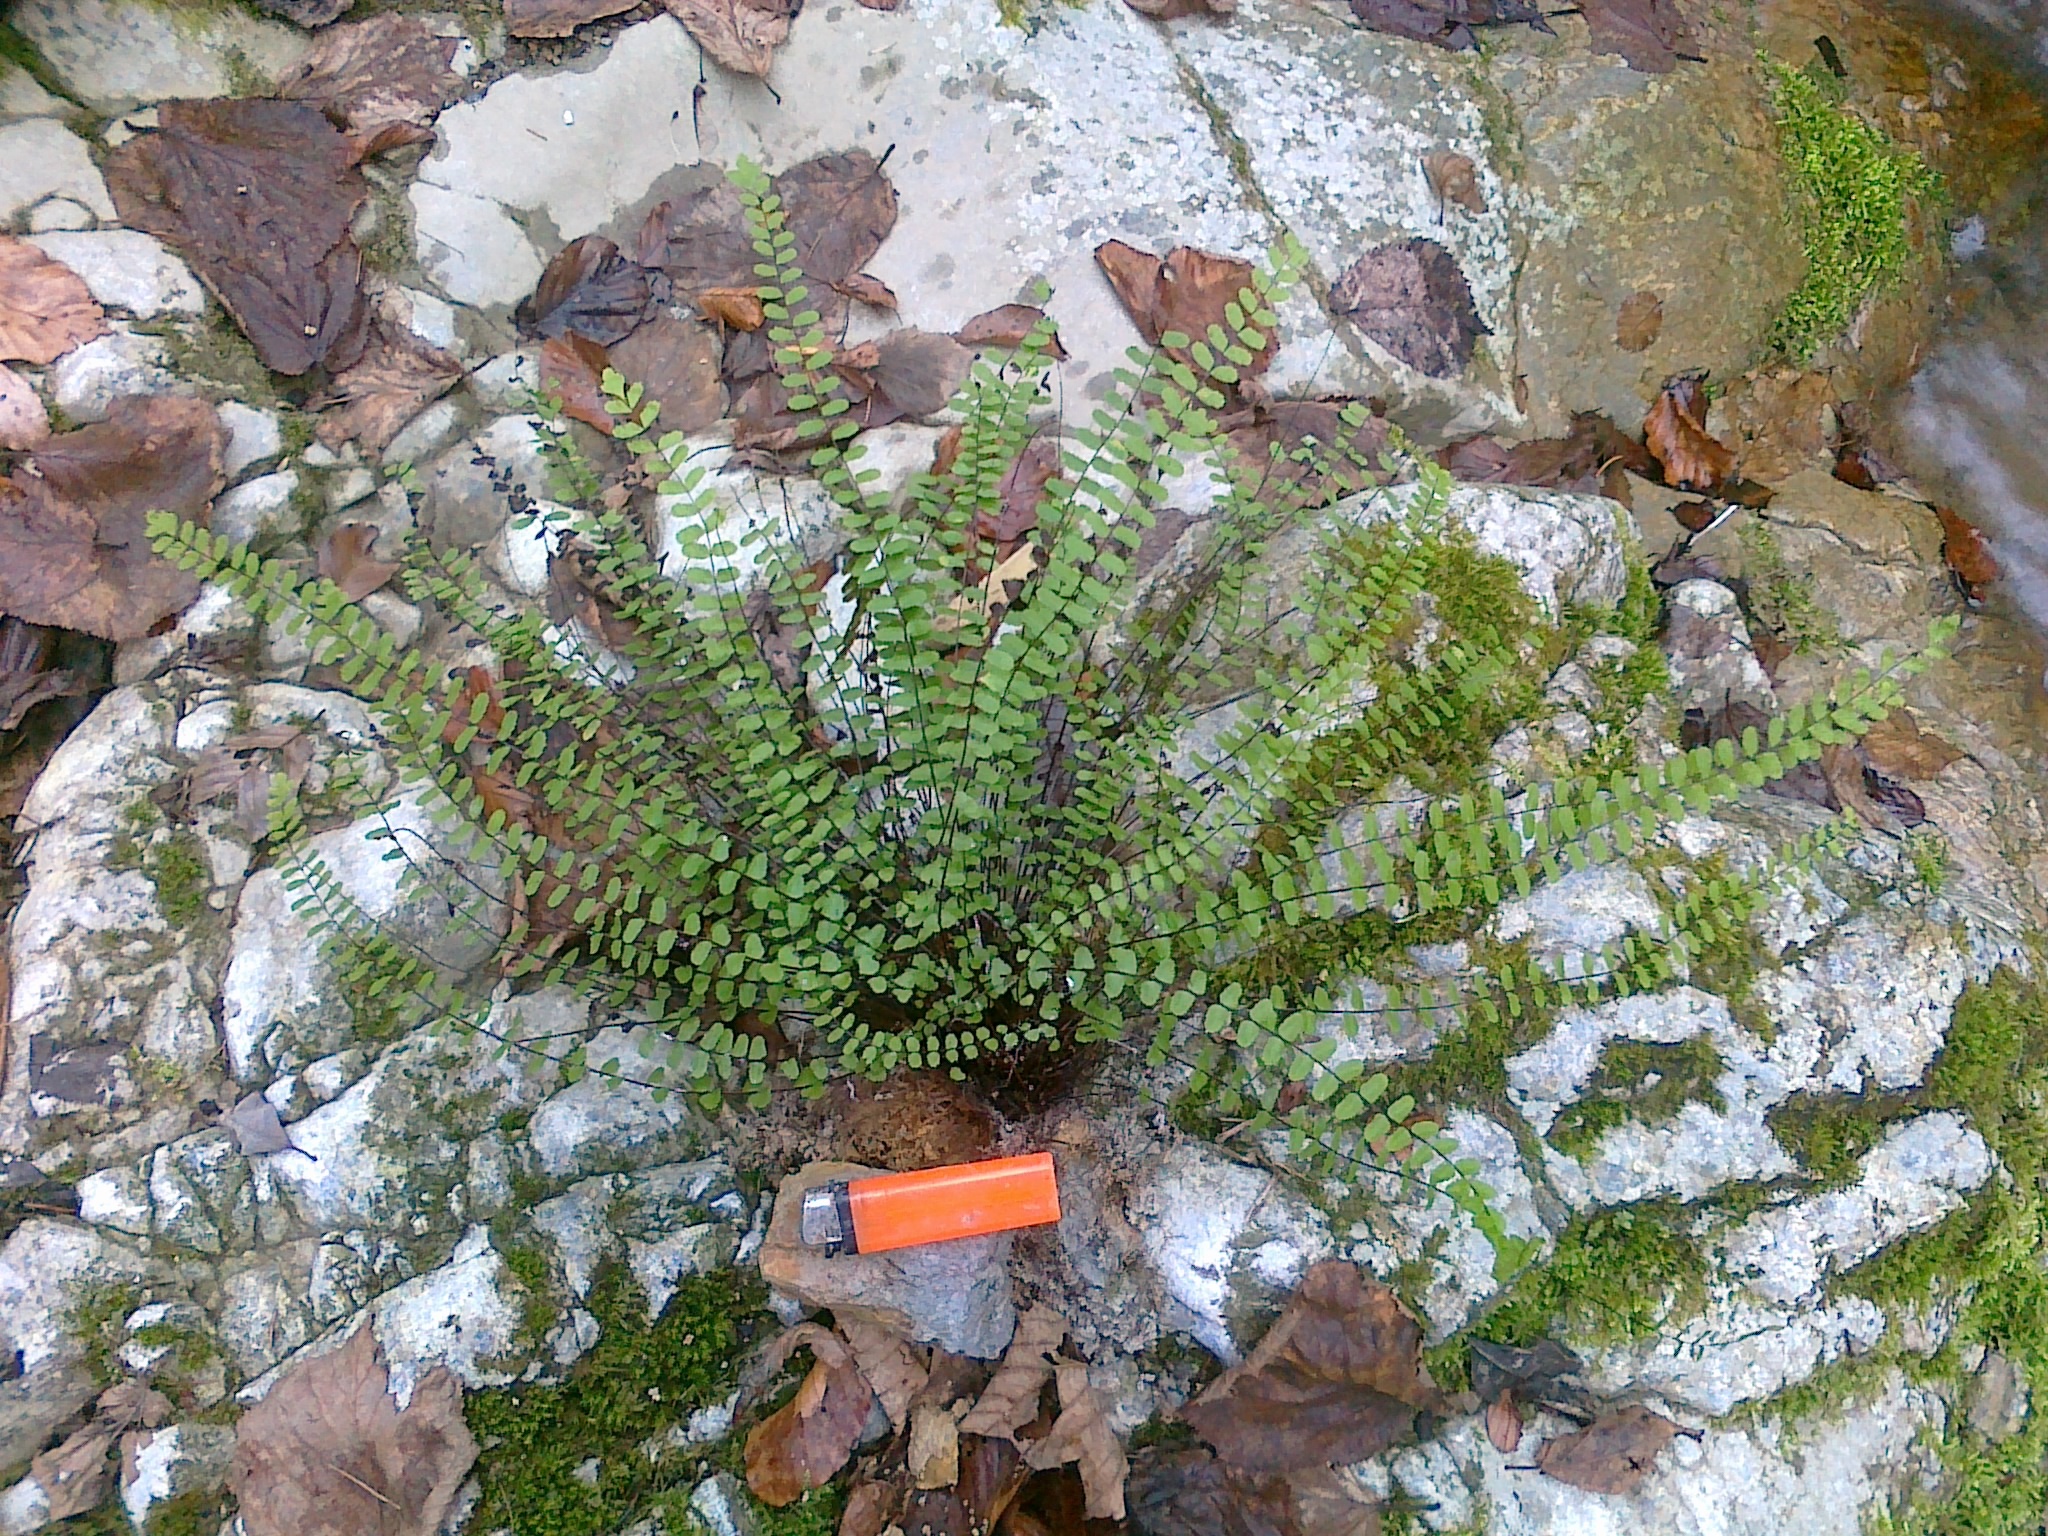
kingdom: Plantae
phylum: Tracheophyta
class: Polypodiopsida
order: Polypodiales
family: Aspleniaceae
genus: Asplenium
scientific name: Asplenium trichomanes
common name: Maidenhair spleenwort
